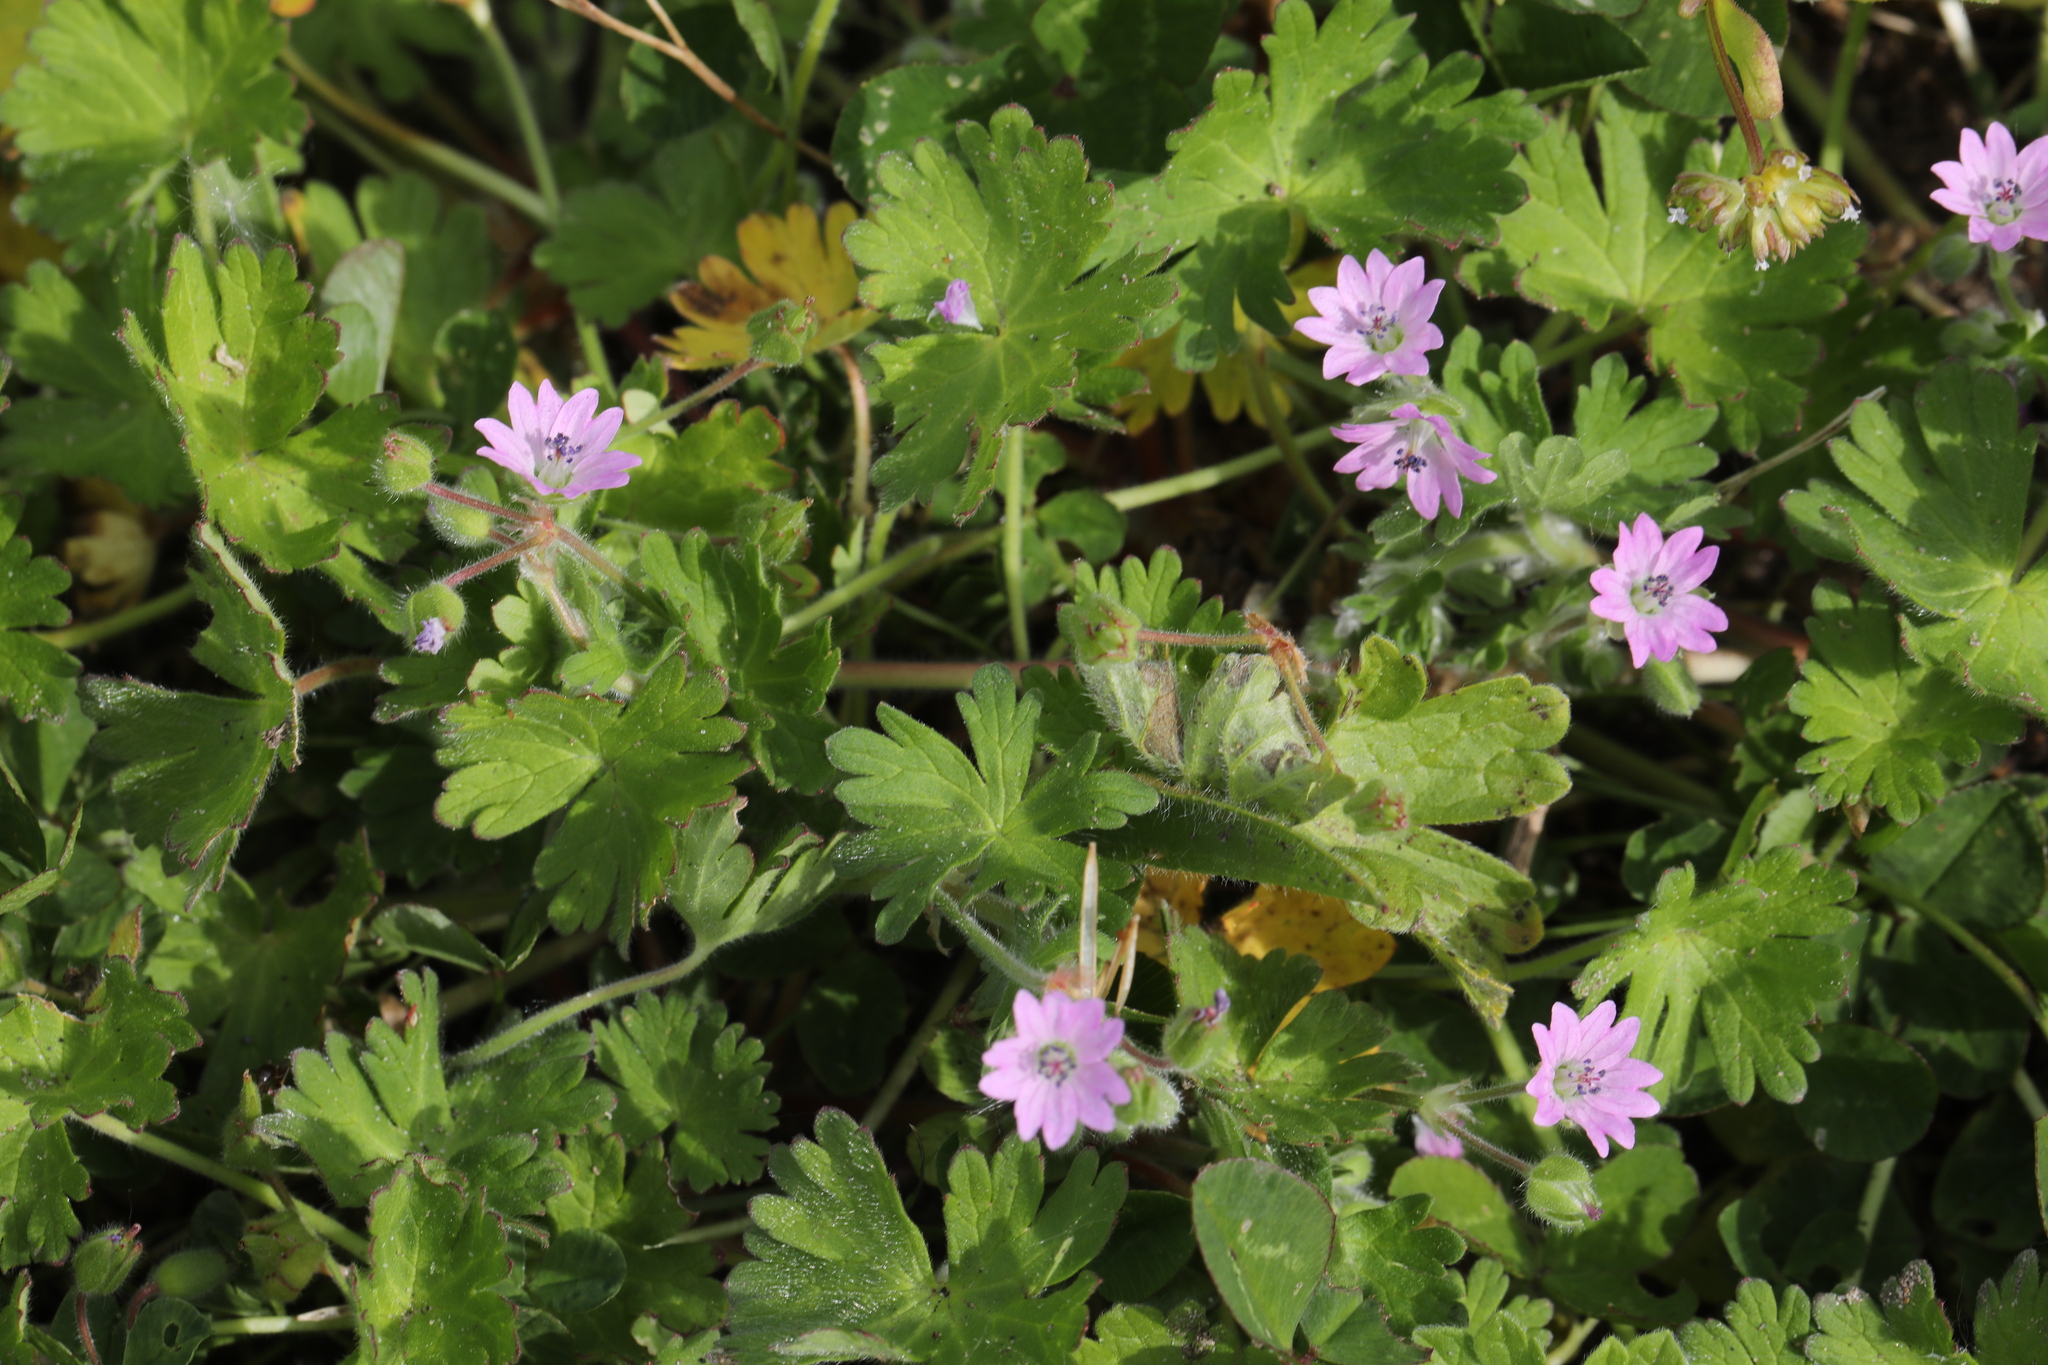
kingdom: Plantae
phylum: Tracheophyta
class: Magnoliopsida
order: Geraniales
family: Geraniaceae
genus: Geranium
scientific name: Geranium molle
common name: Dove's-foot crane's-bill
